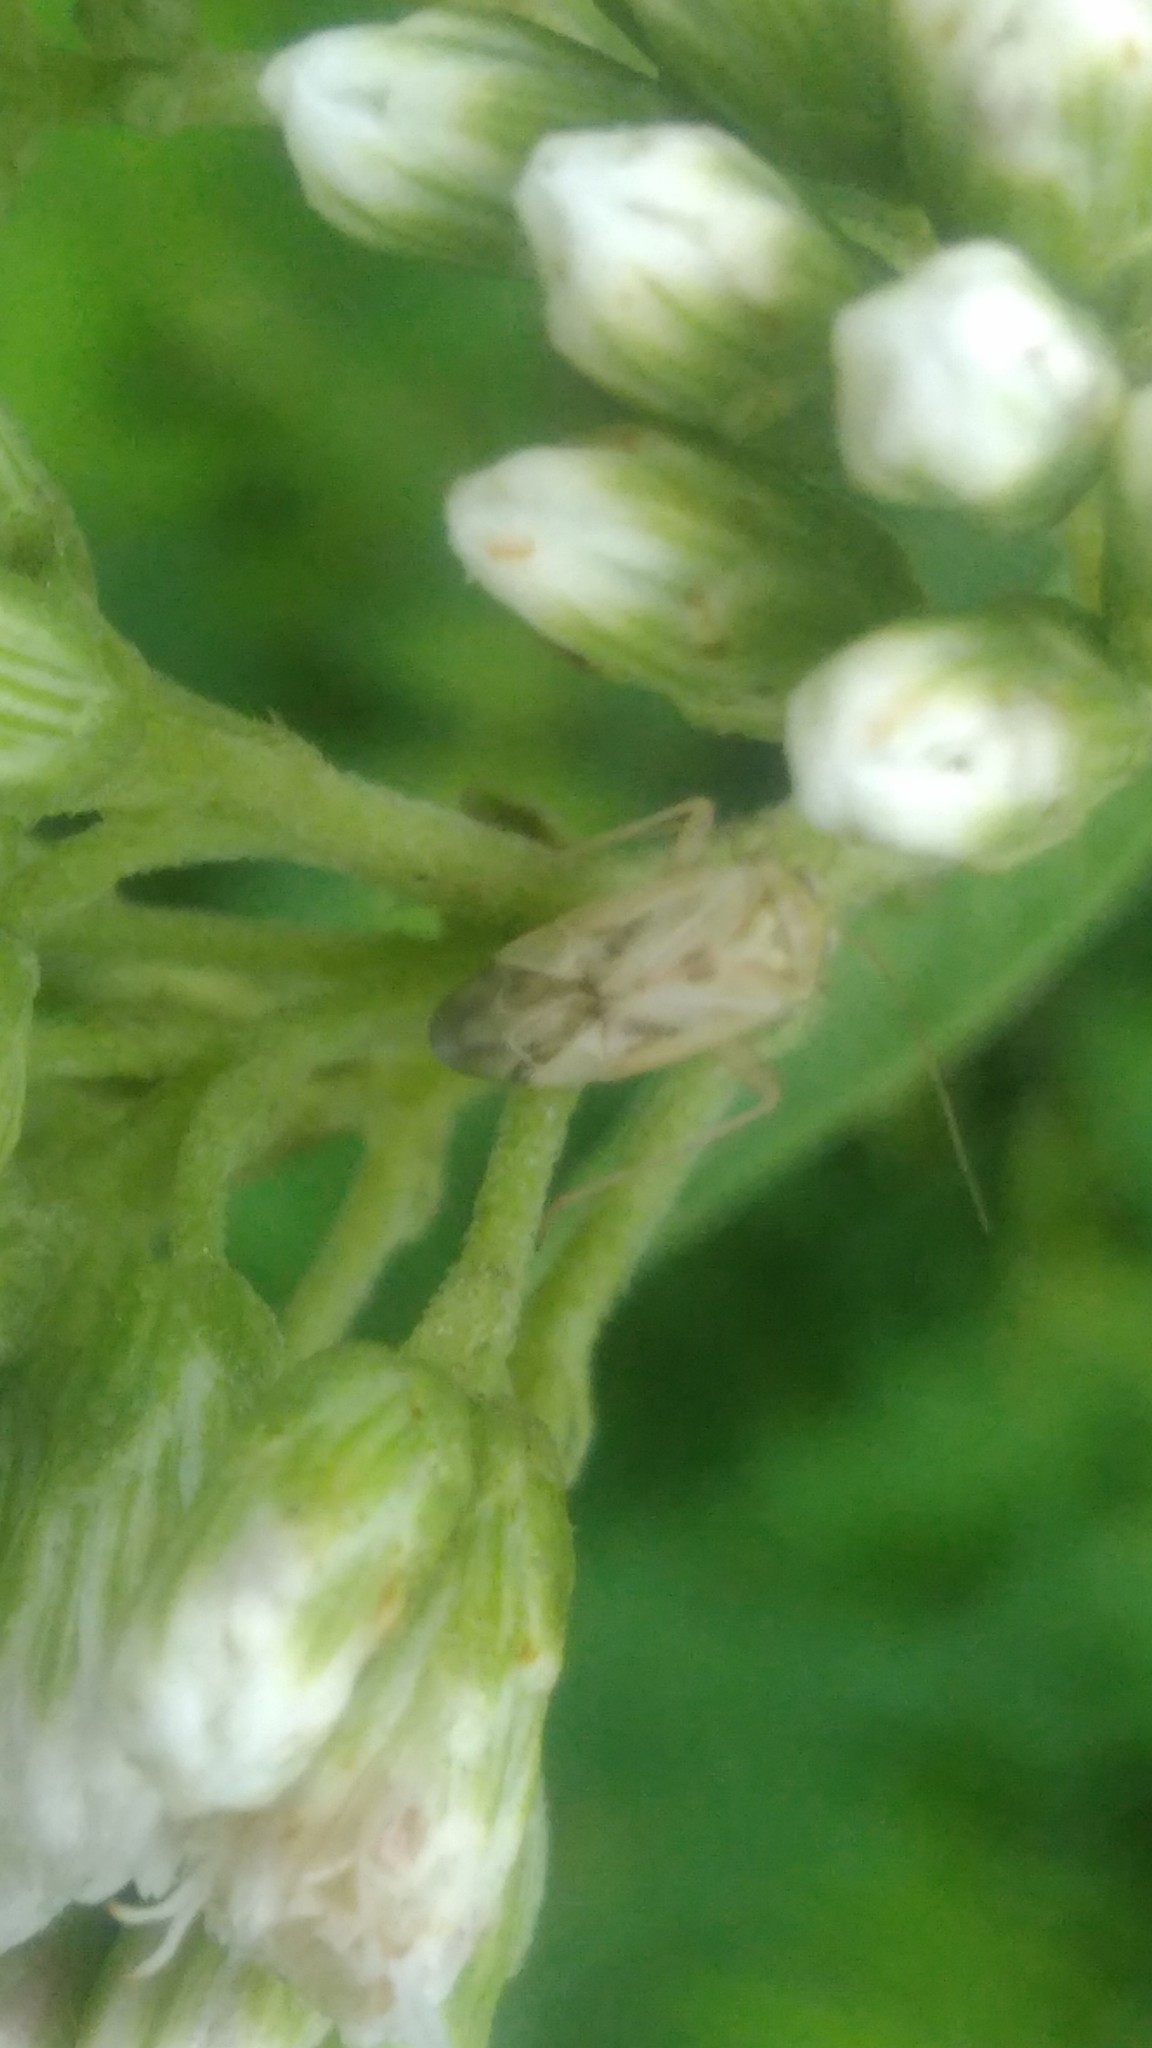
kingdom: Animalia
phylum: Arthropoda
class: Insecta
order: Hemiptera
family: Miridae
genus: Taylorilygus
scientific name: Taylorilygus apicalis
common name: Plant bug
